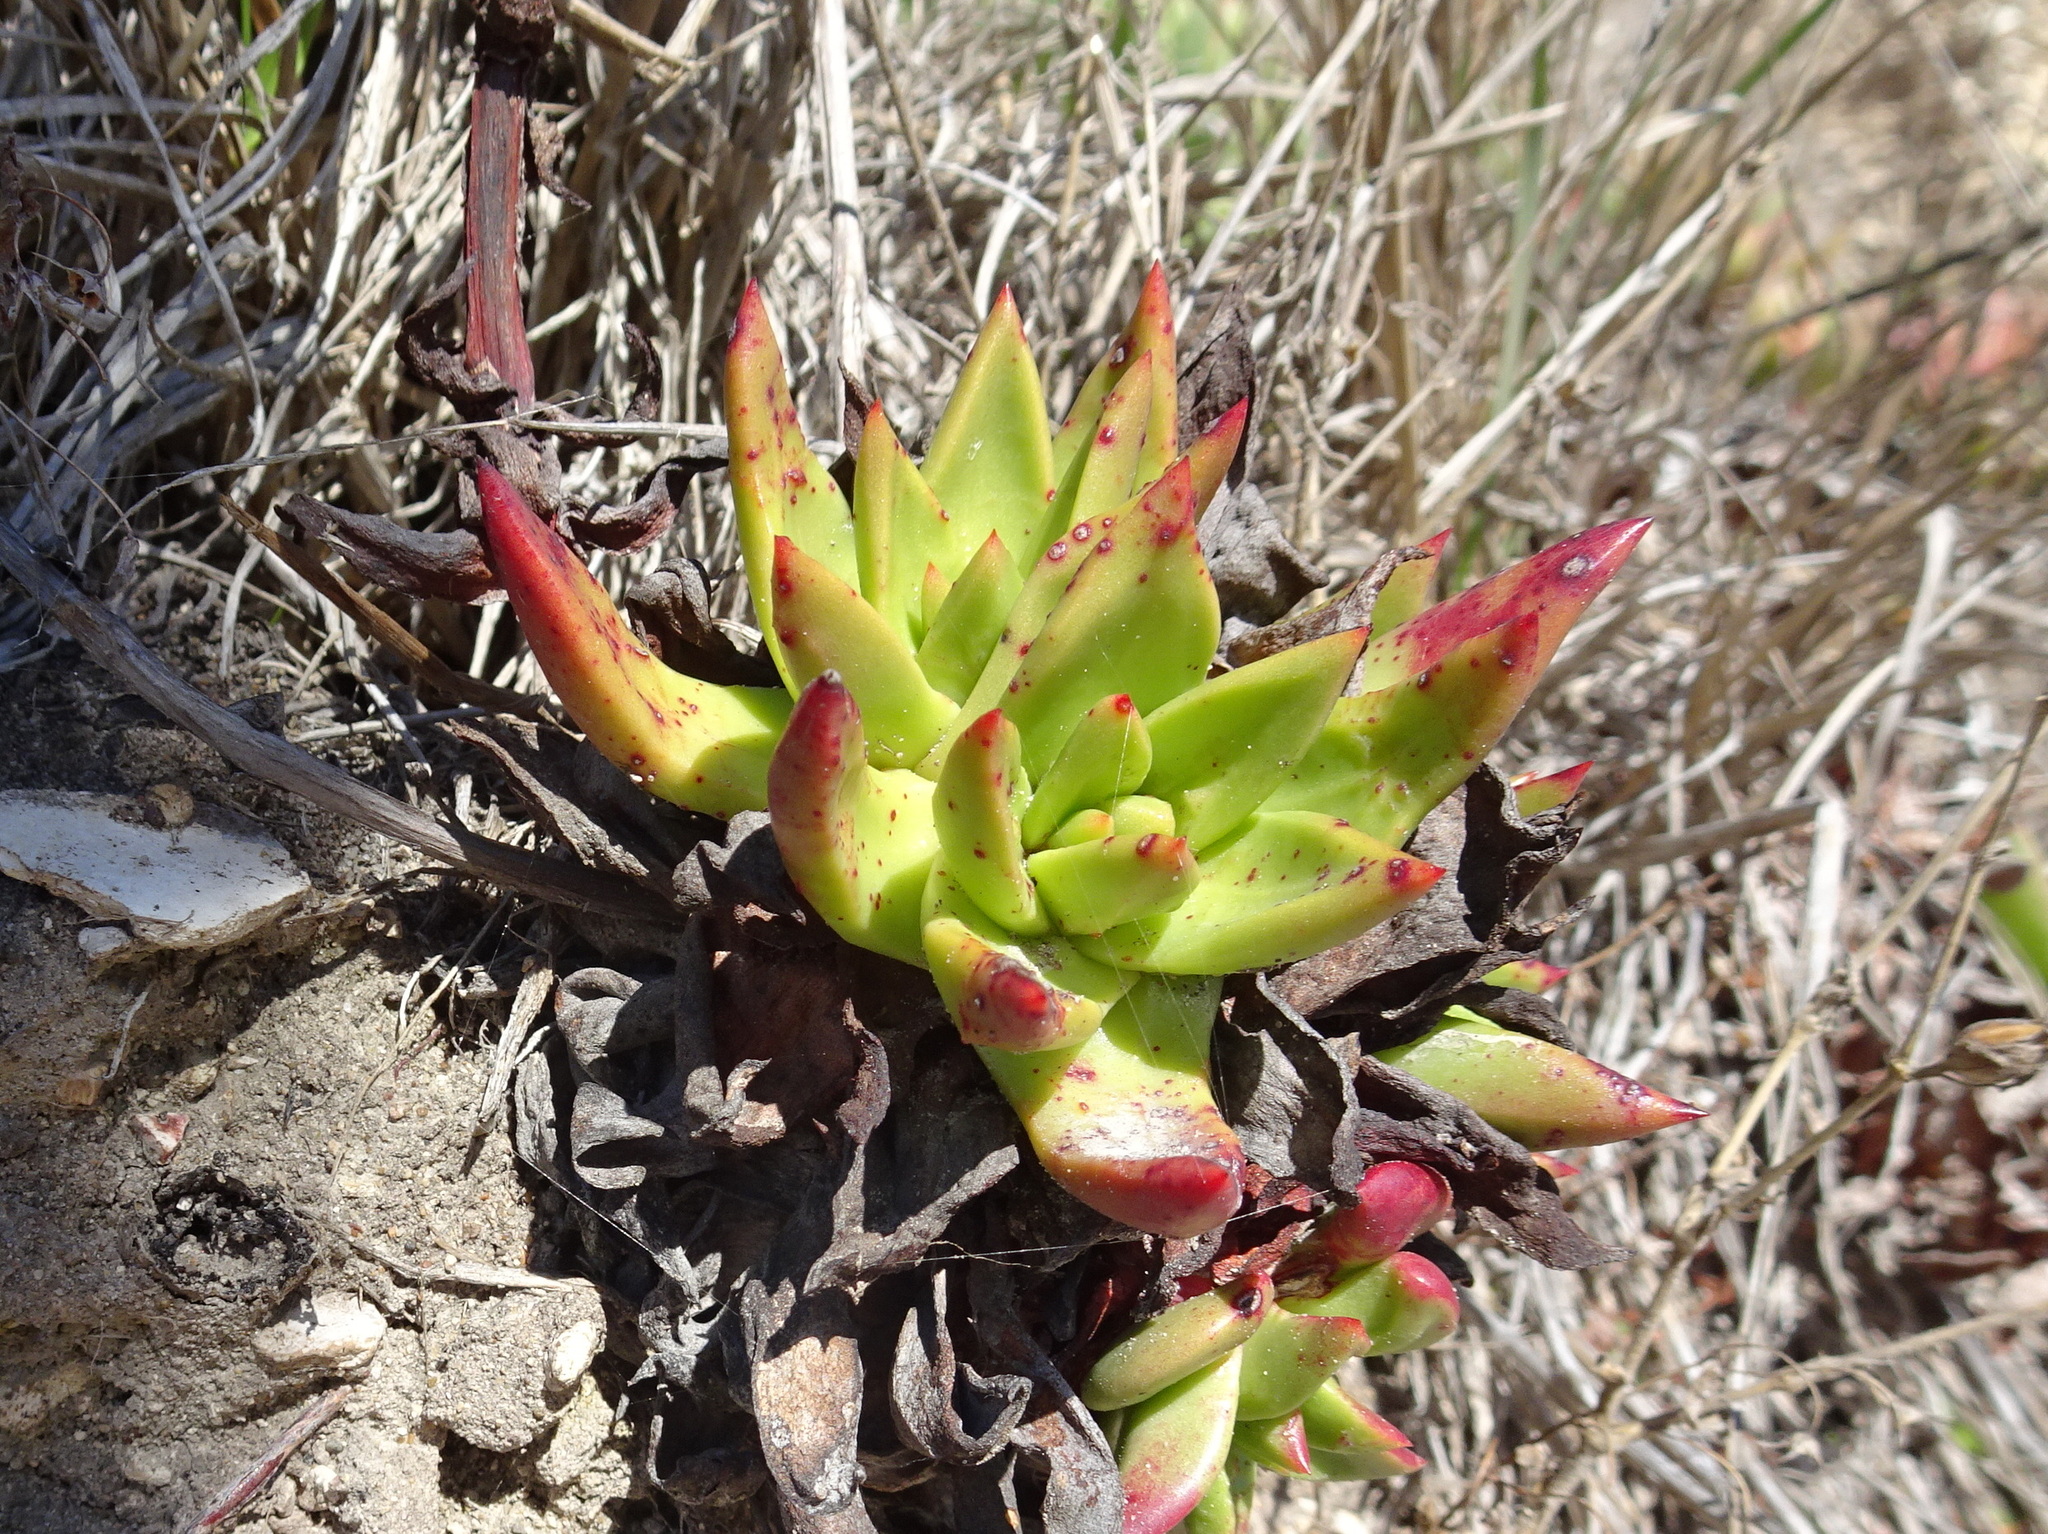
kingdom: Plantae
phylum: Tracheophyta
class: Magnoliopsida
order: Saxifragales
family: Crassulaceae
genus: Dudleya
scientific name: Dudleya farinosa
